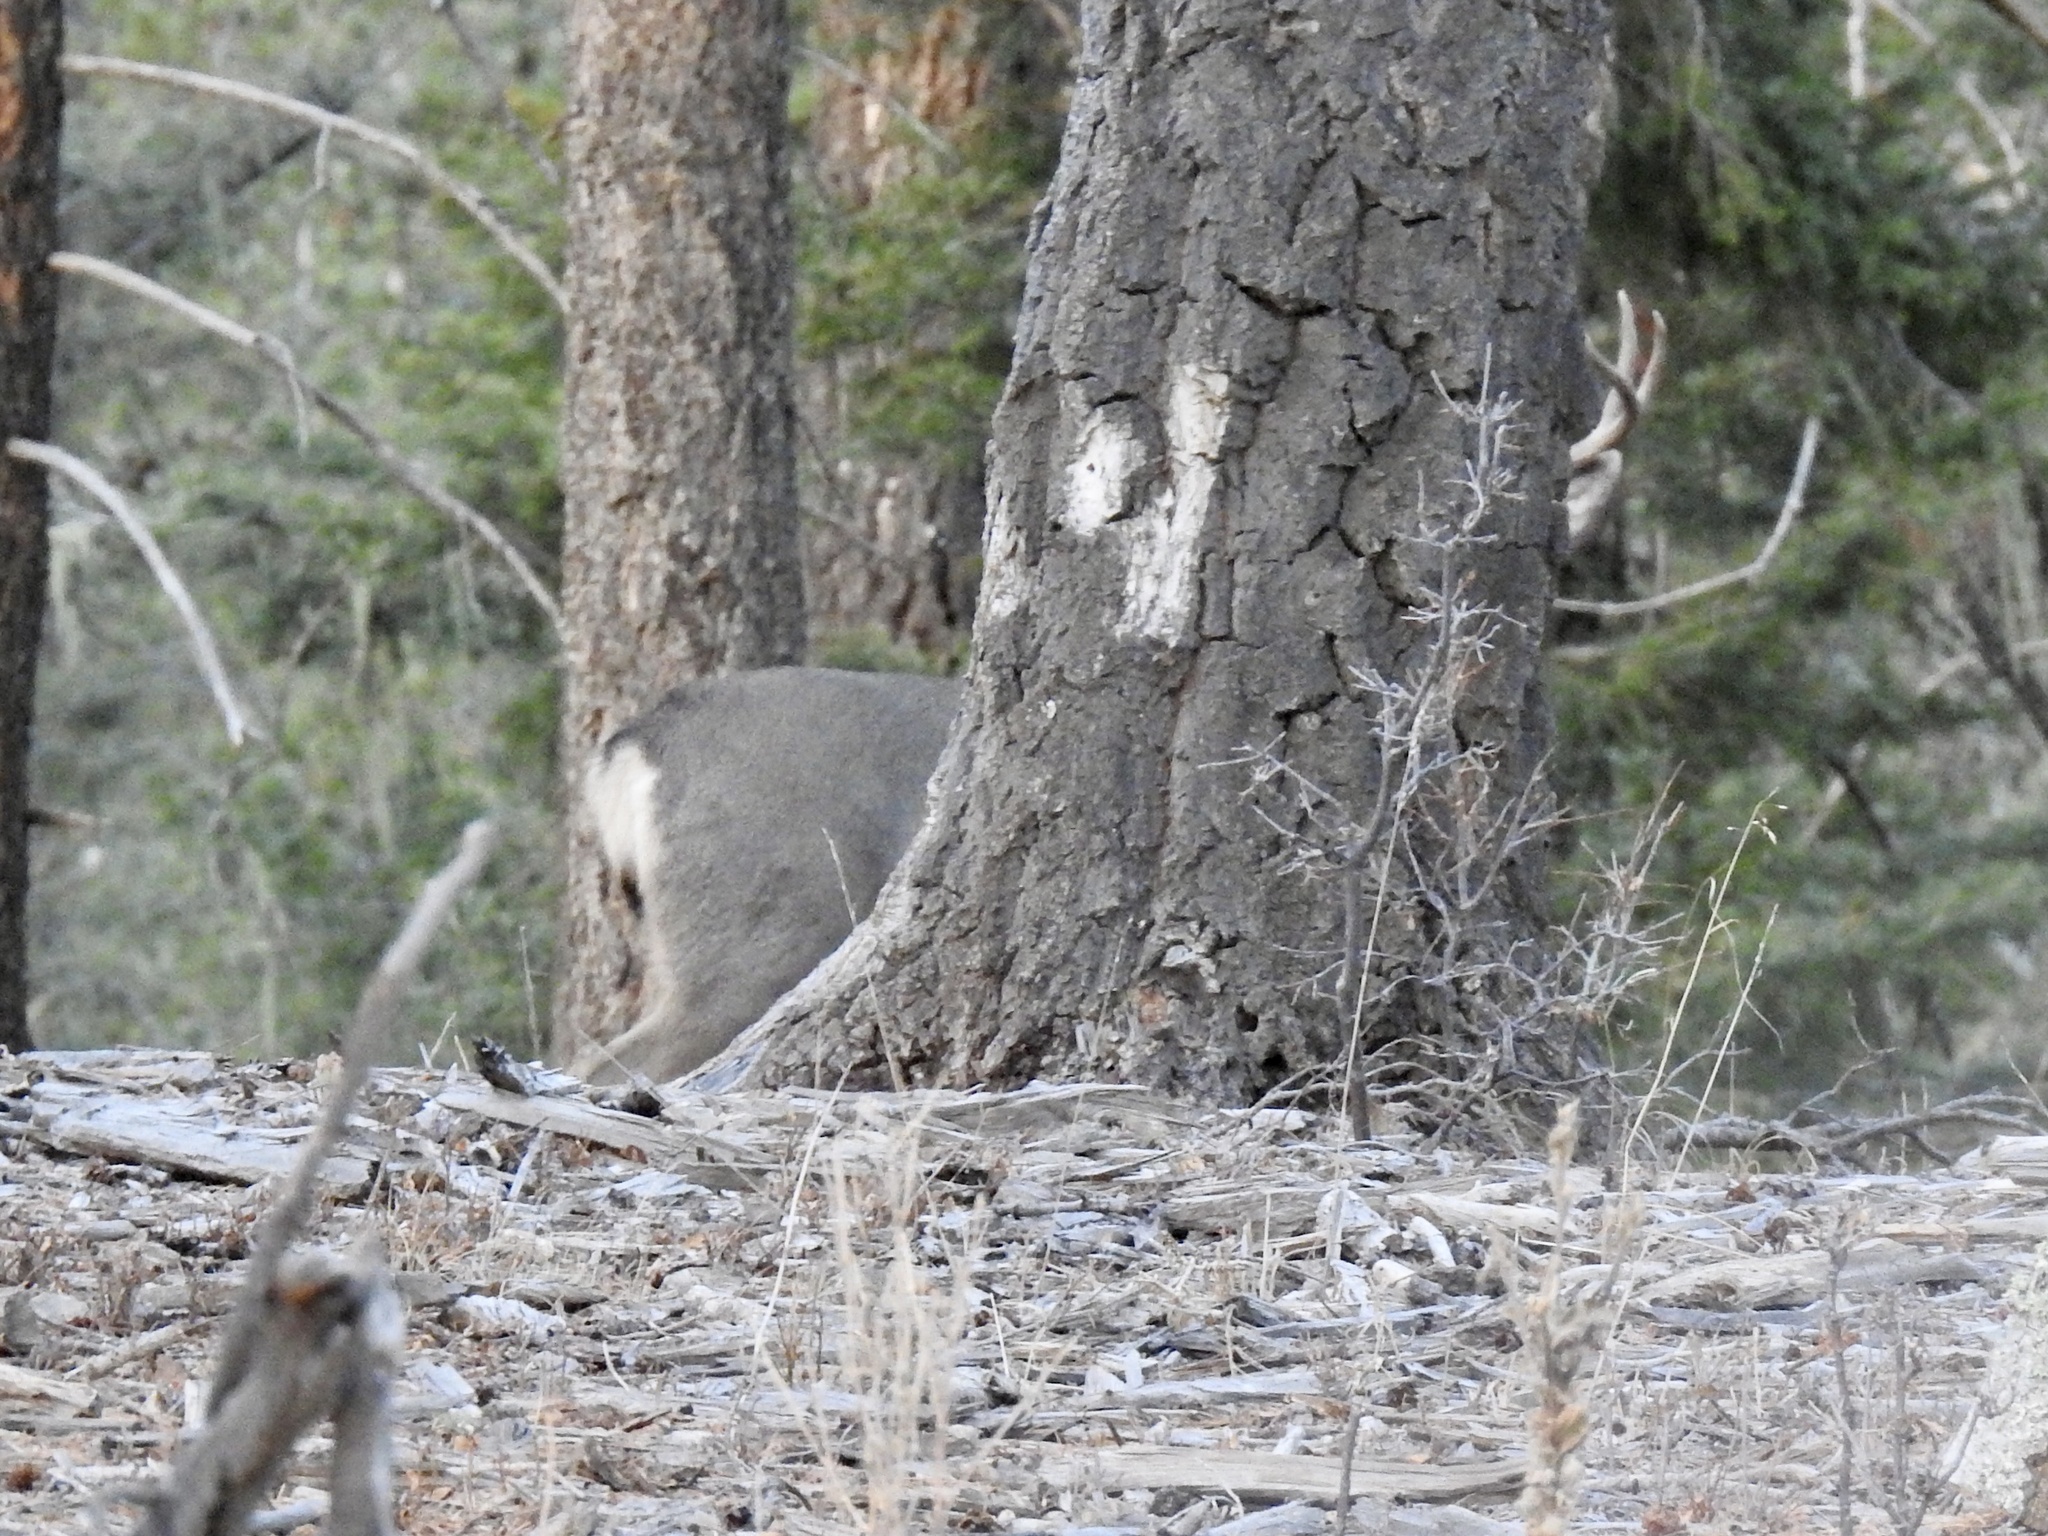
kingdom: Animalia
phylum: Chordata
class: Mammalia
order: Artiodactyla
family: Cervidae
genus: Odocoileus
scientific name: Odocoileus hemionus
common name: Mule deer
